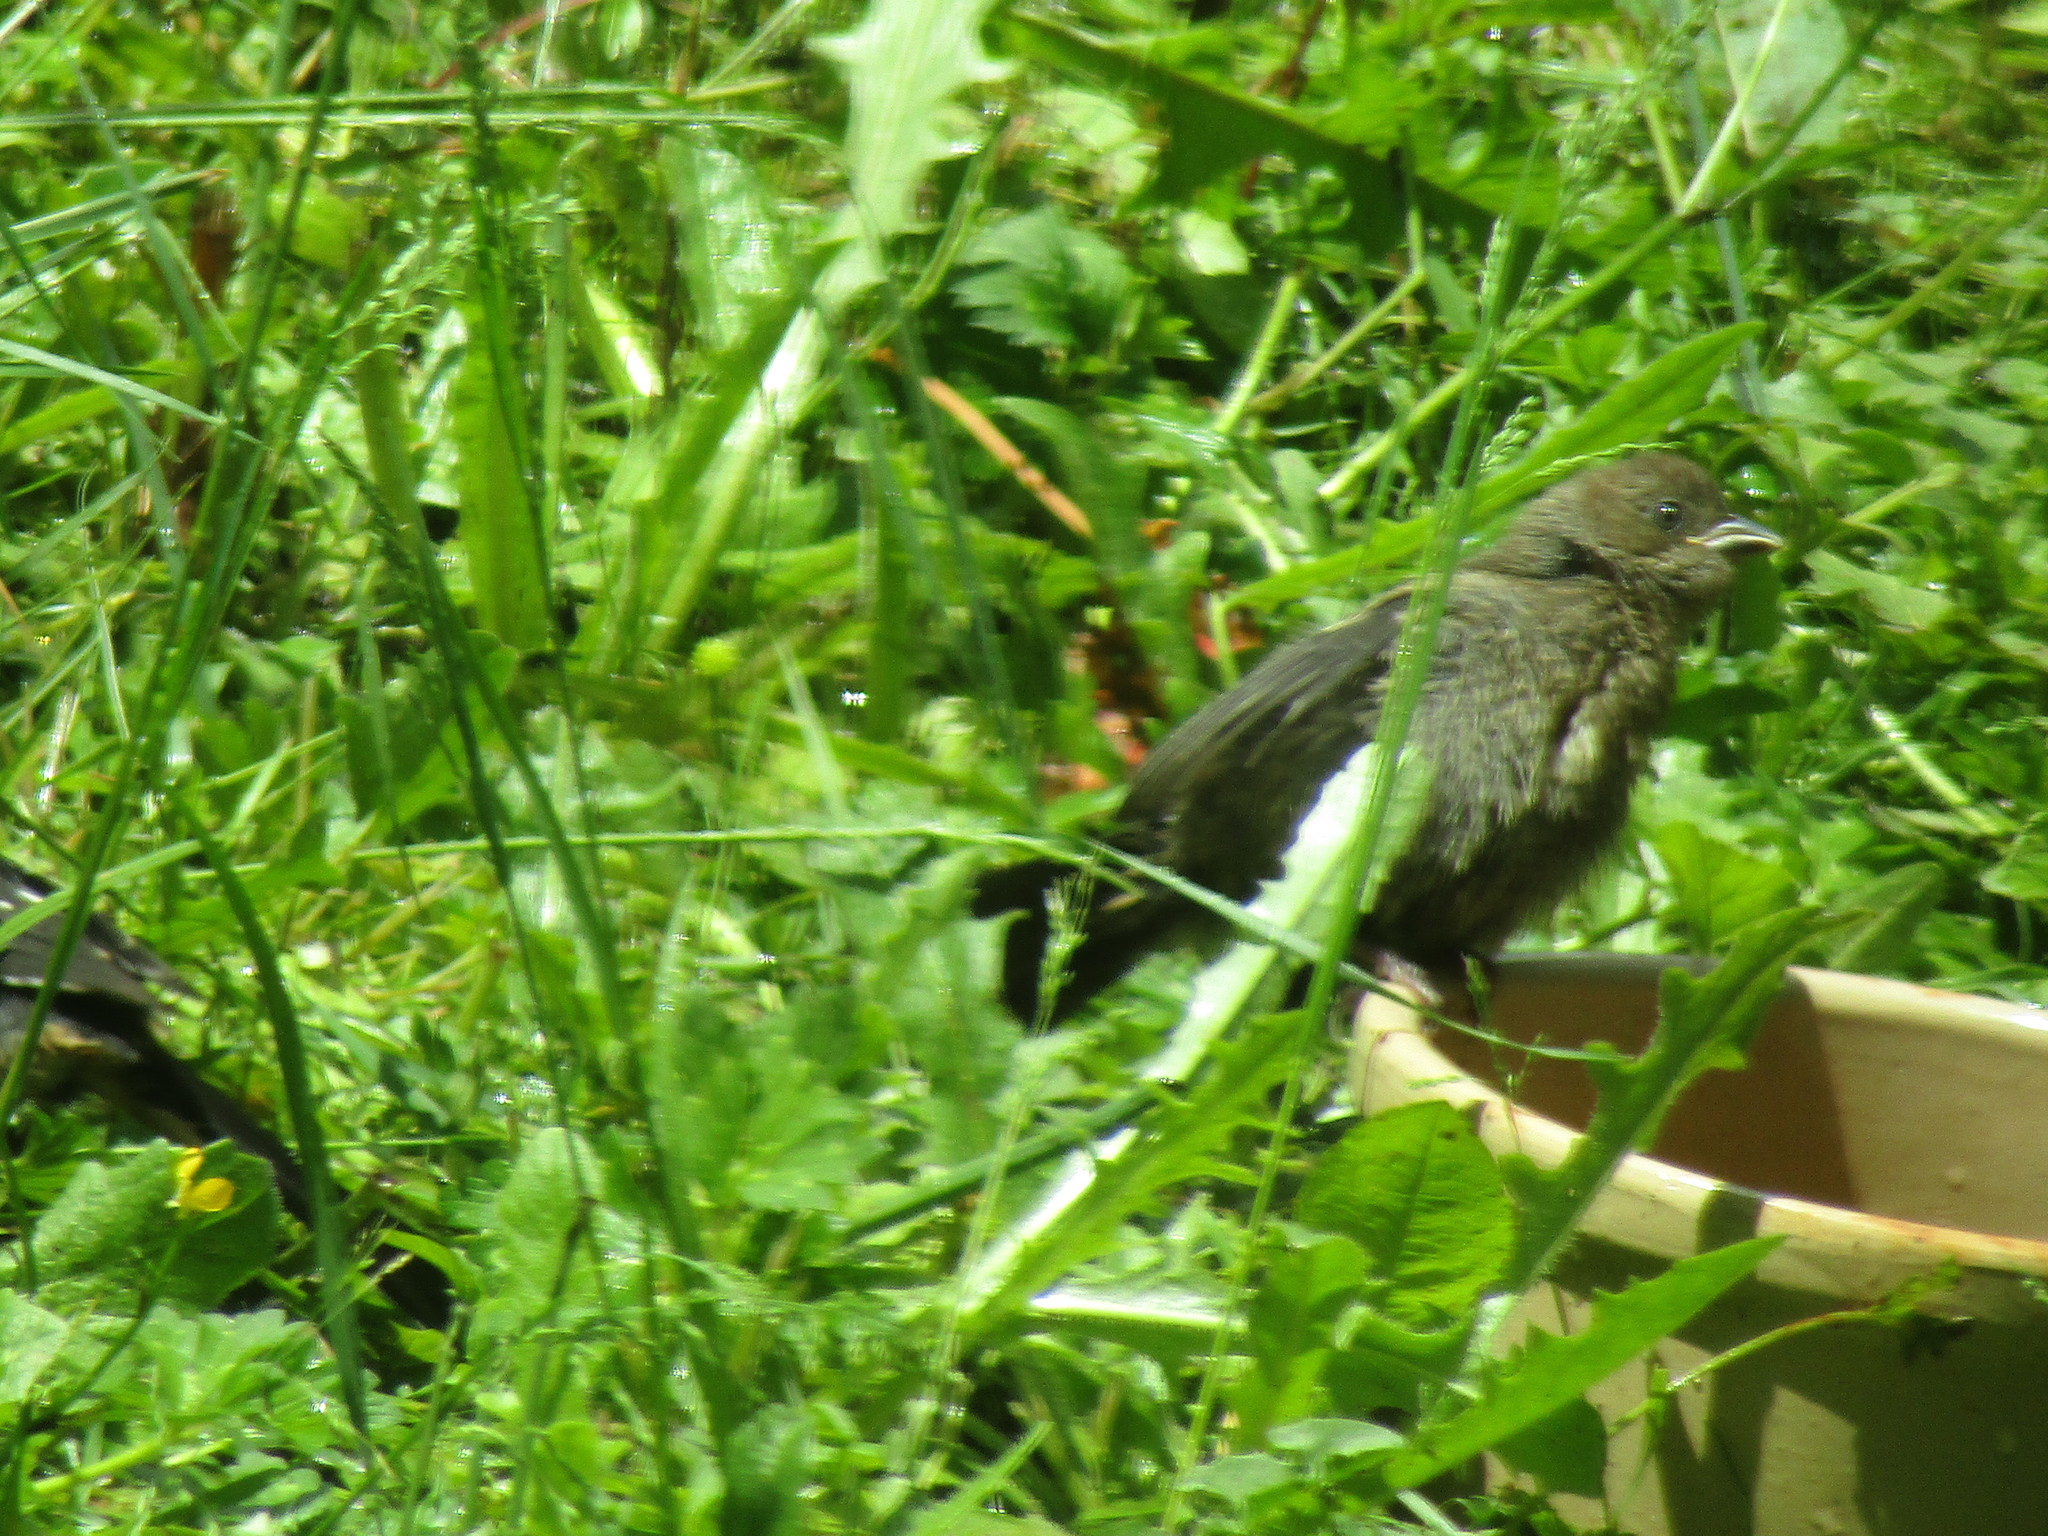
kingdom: Animalia
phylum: Chordata
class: Aves
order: Passeriformes
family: Icteridae
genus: Molothrus
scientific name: Molothrus ater
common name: Brown-headed cowbird
